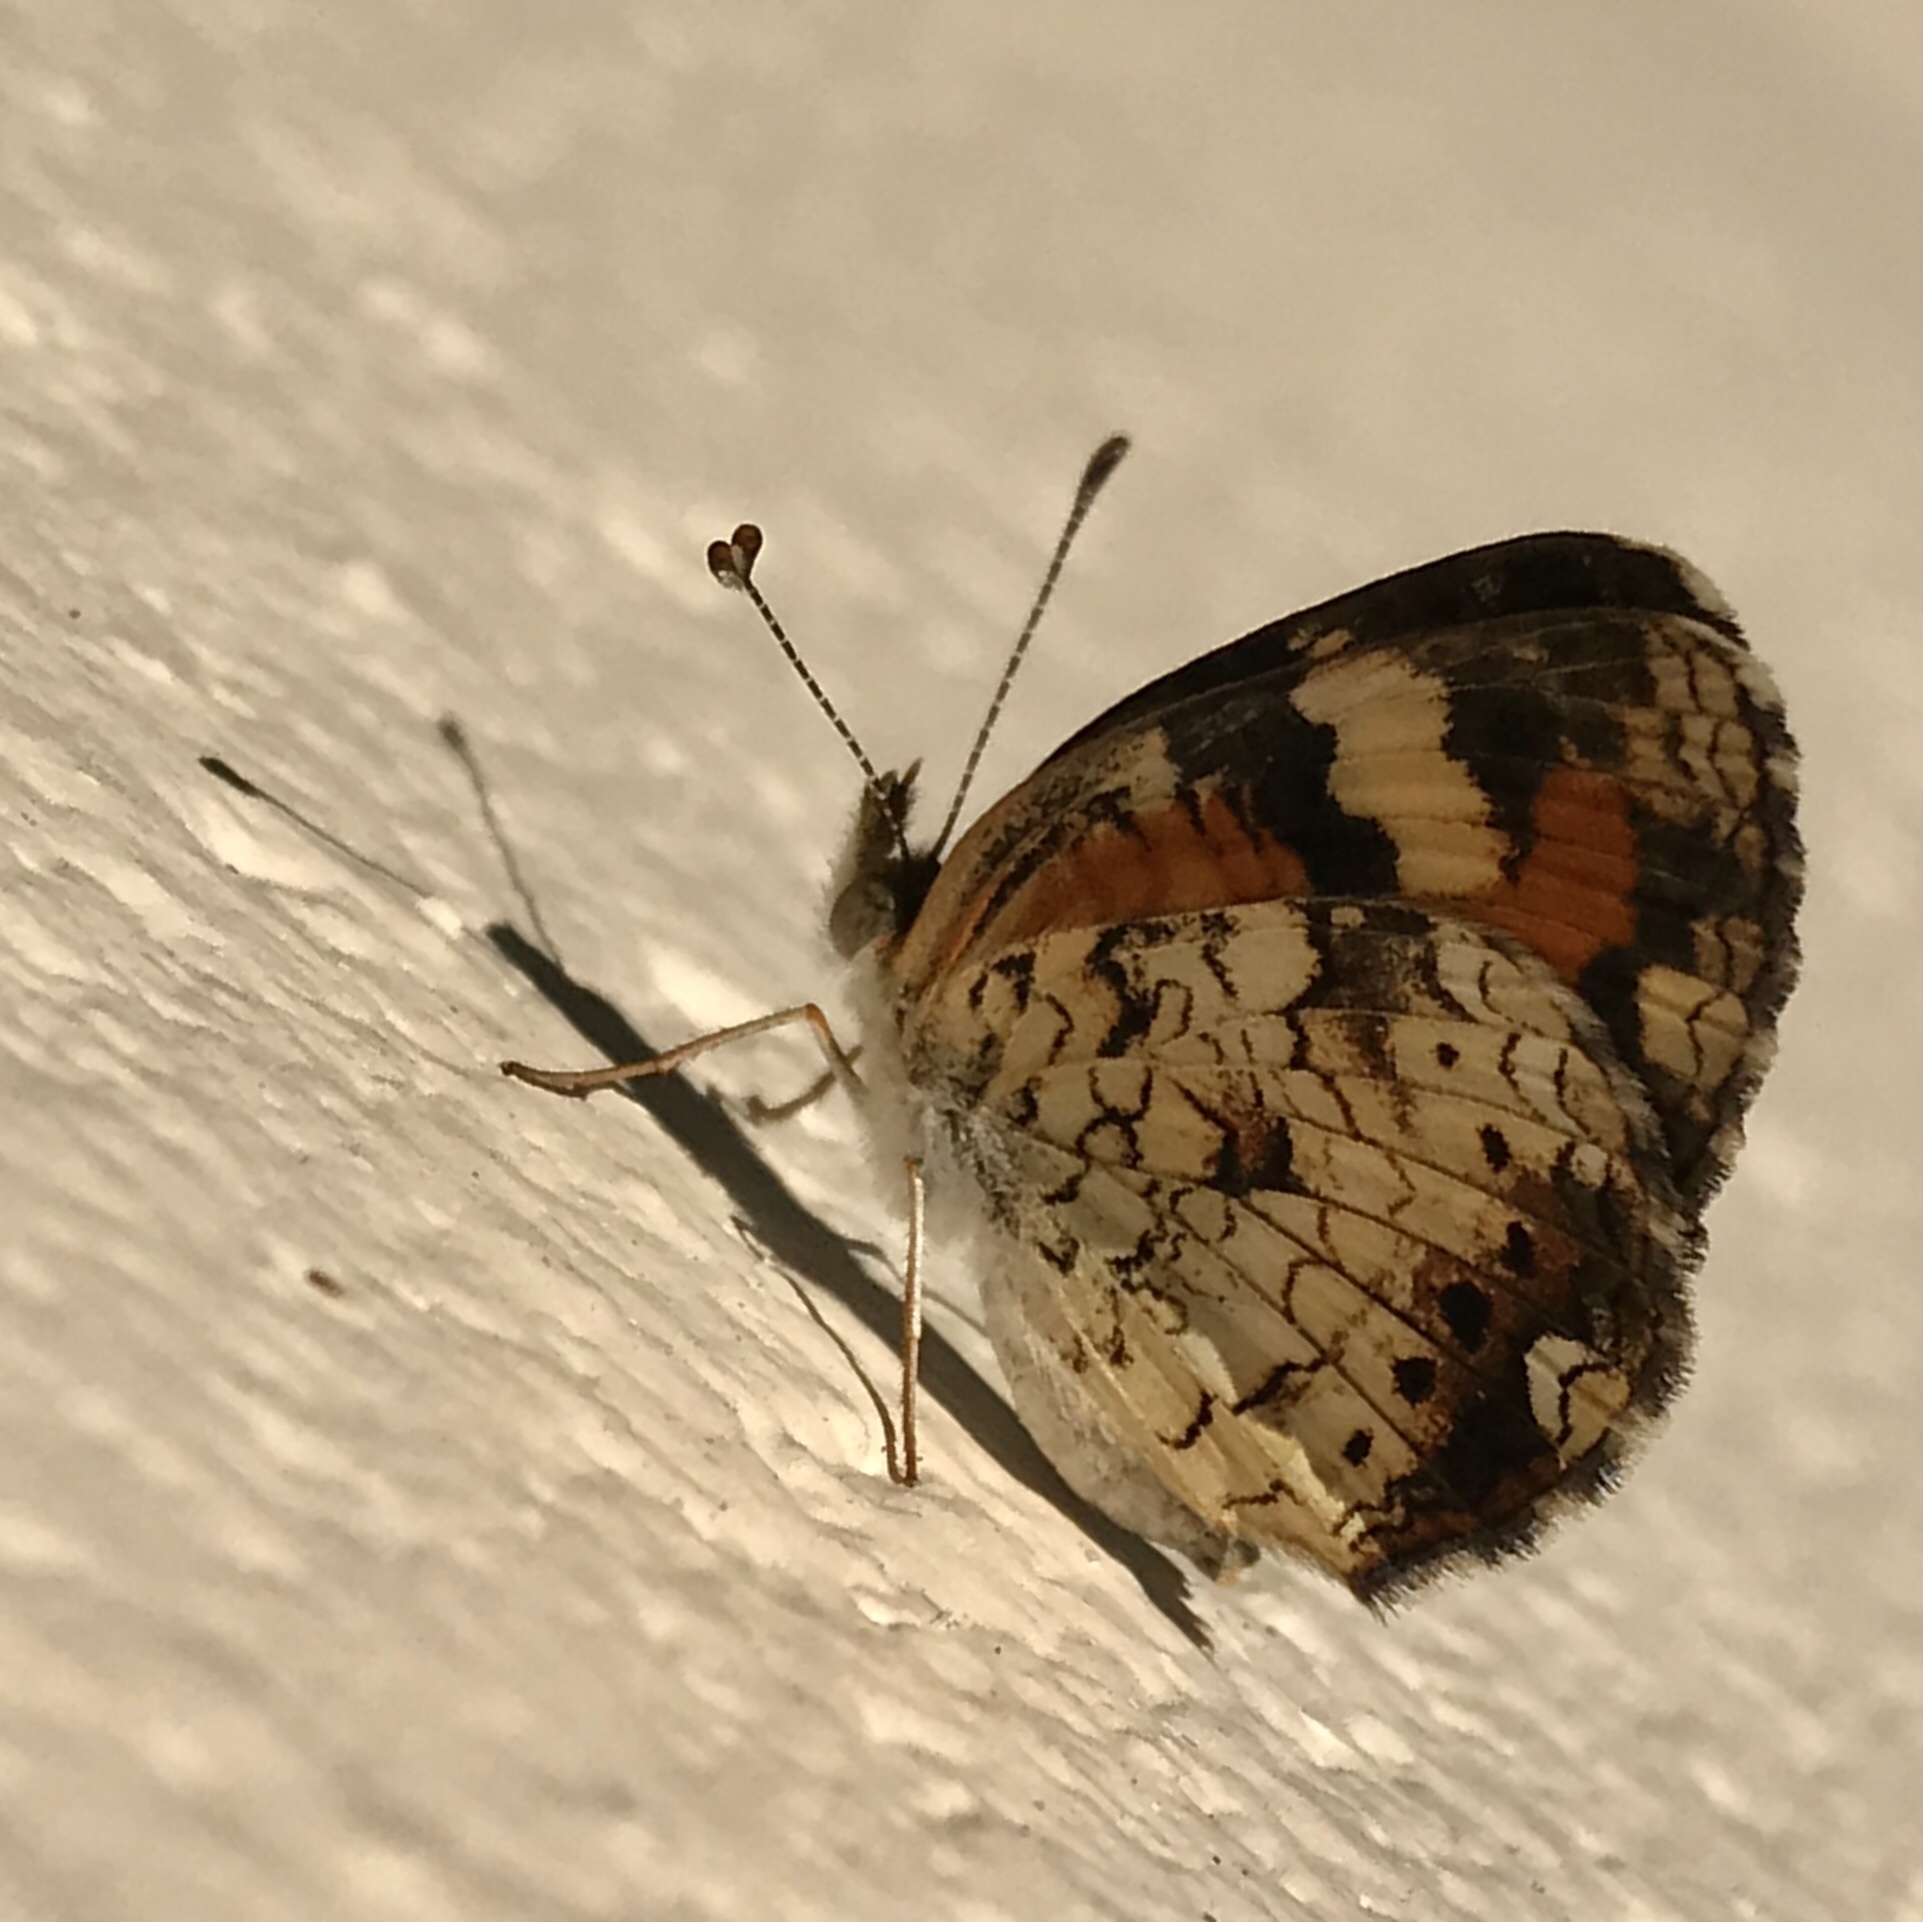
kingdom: Animalia
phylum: Arthropoda
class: Insecta
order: Lepidoptera
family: Nymphalidae
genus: Phyciodes
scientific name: Phyciodes phaon
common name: Phaon crescent
